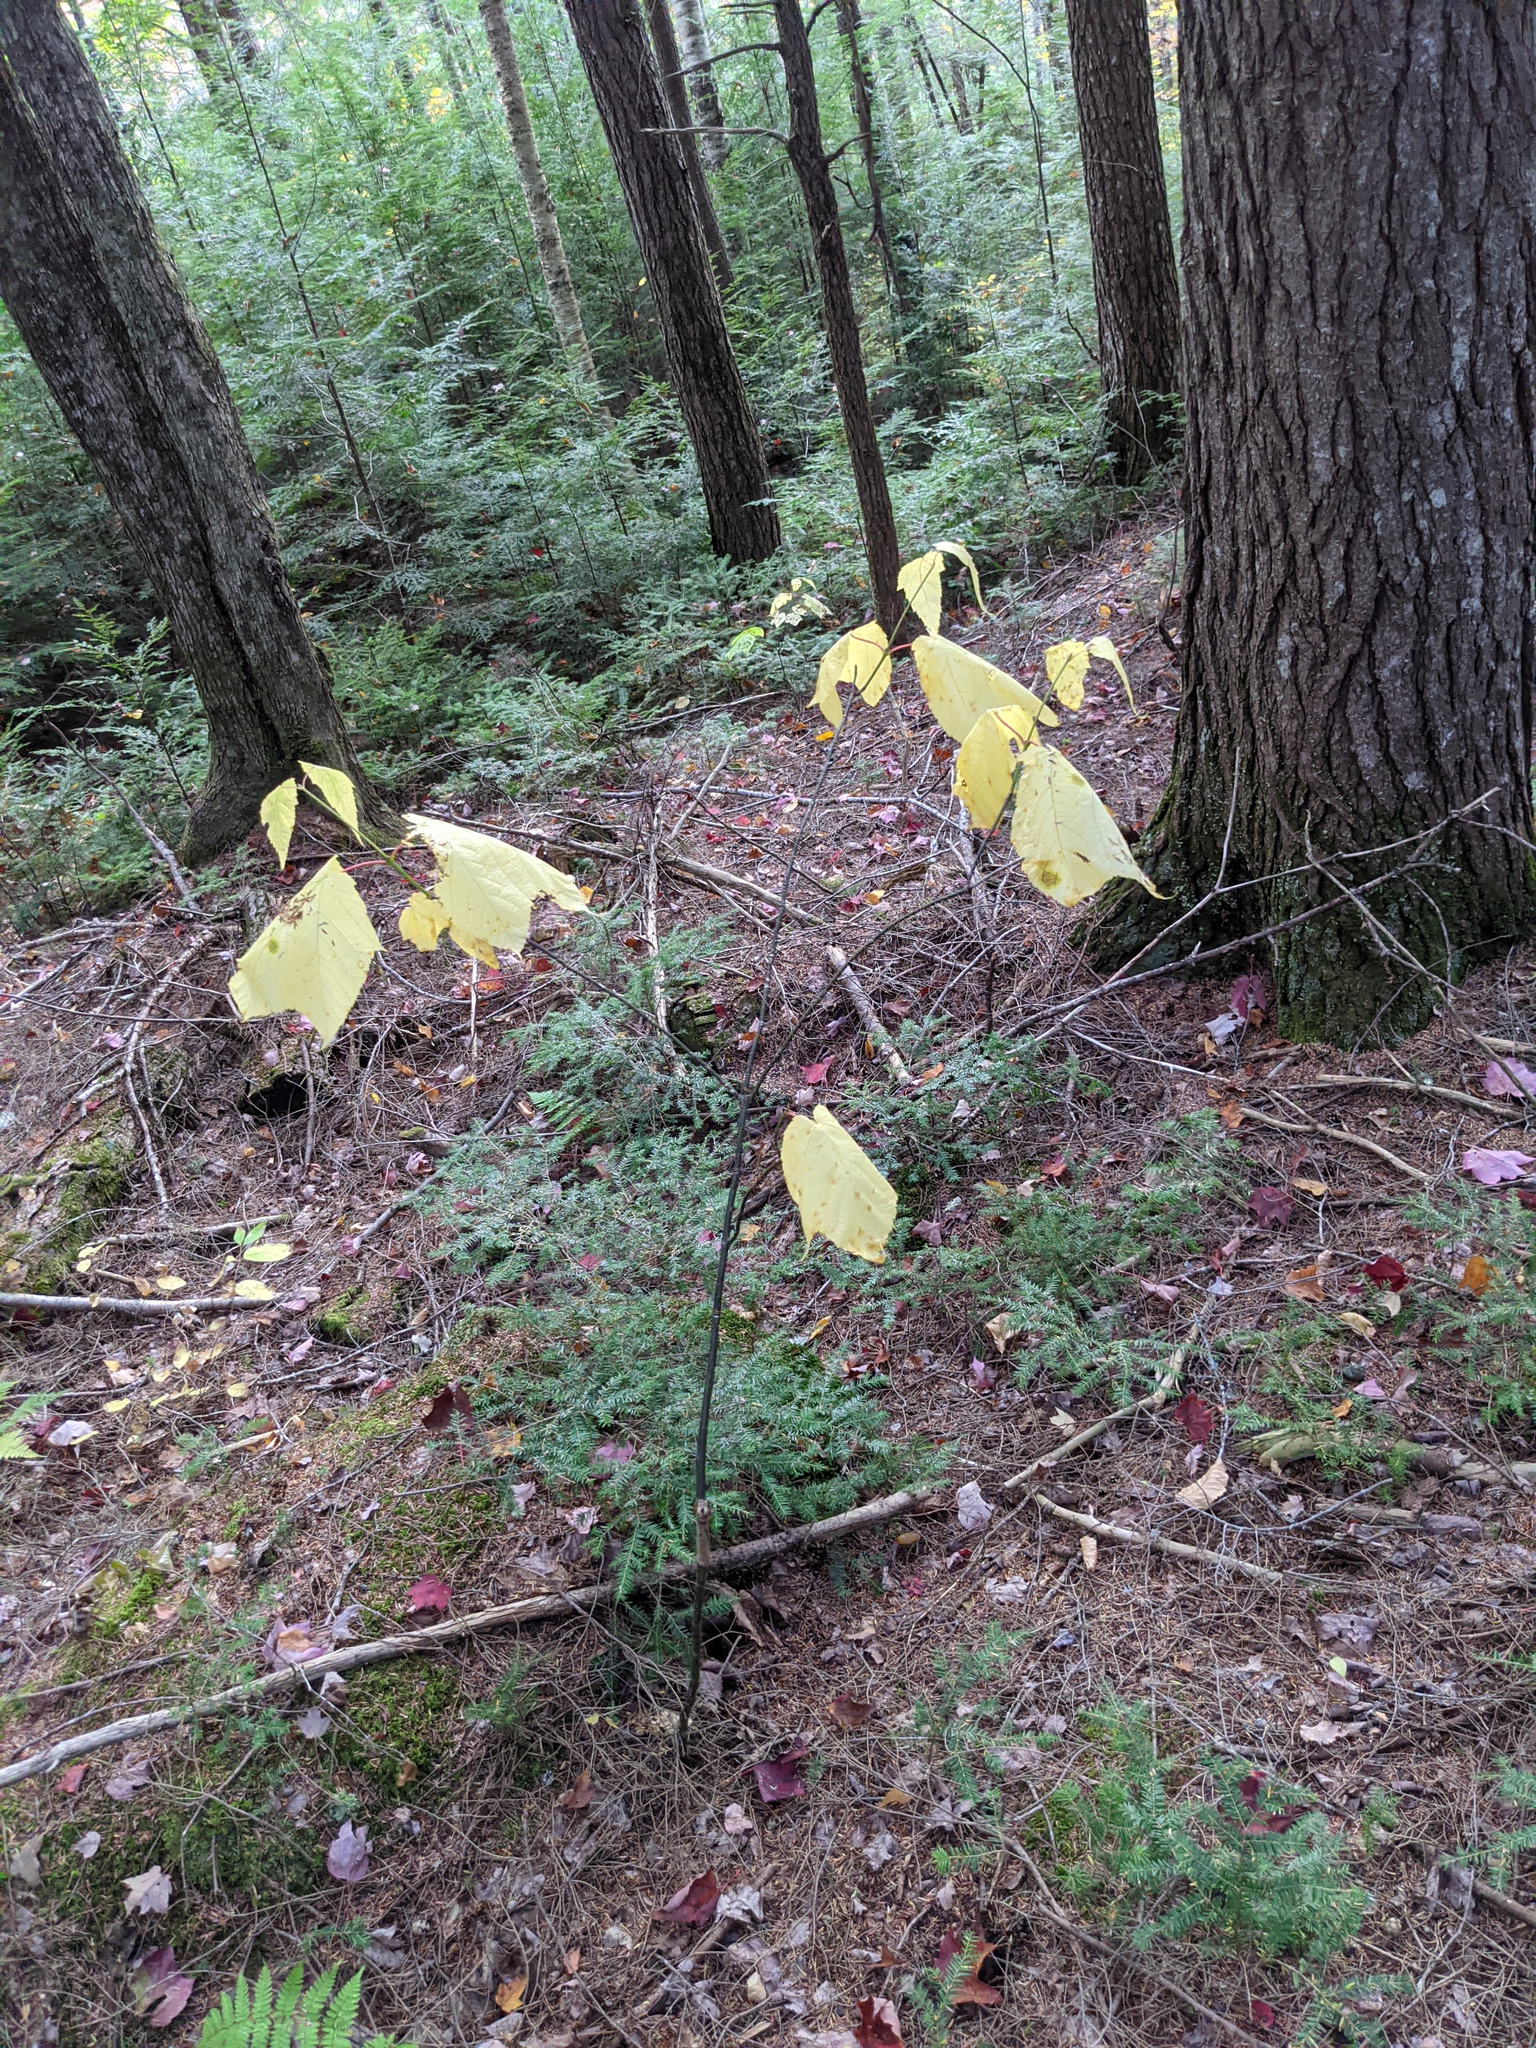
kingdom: Plantae
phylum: Tracheophyta
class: Magnoliopsida
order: Sapindales
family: Sapindaceae
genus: Acer
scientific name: Acer pensylvanicum
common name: Moosewood
